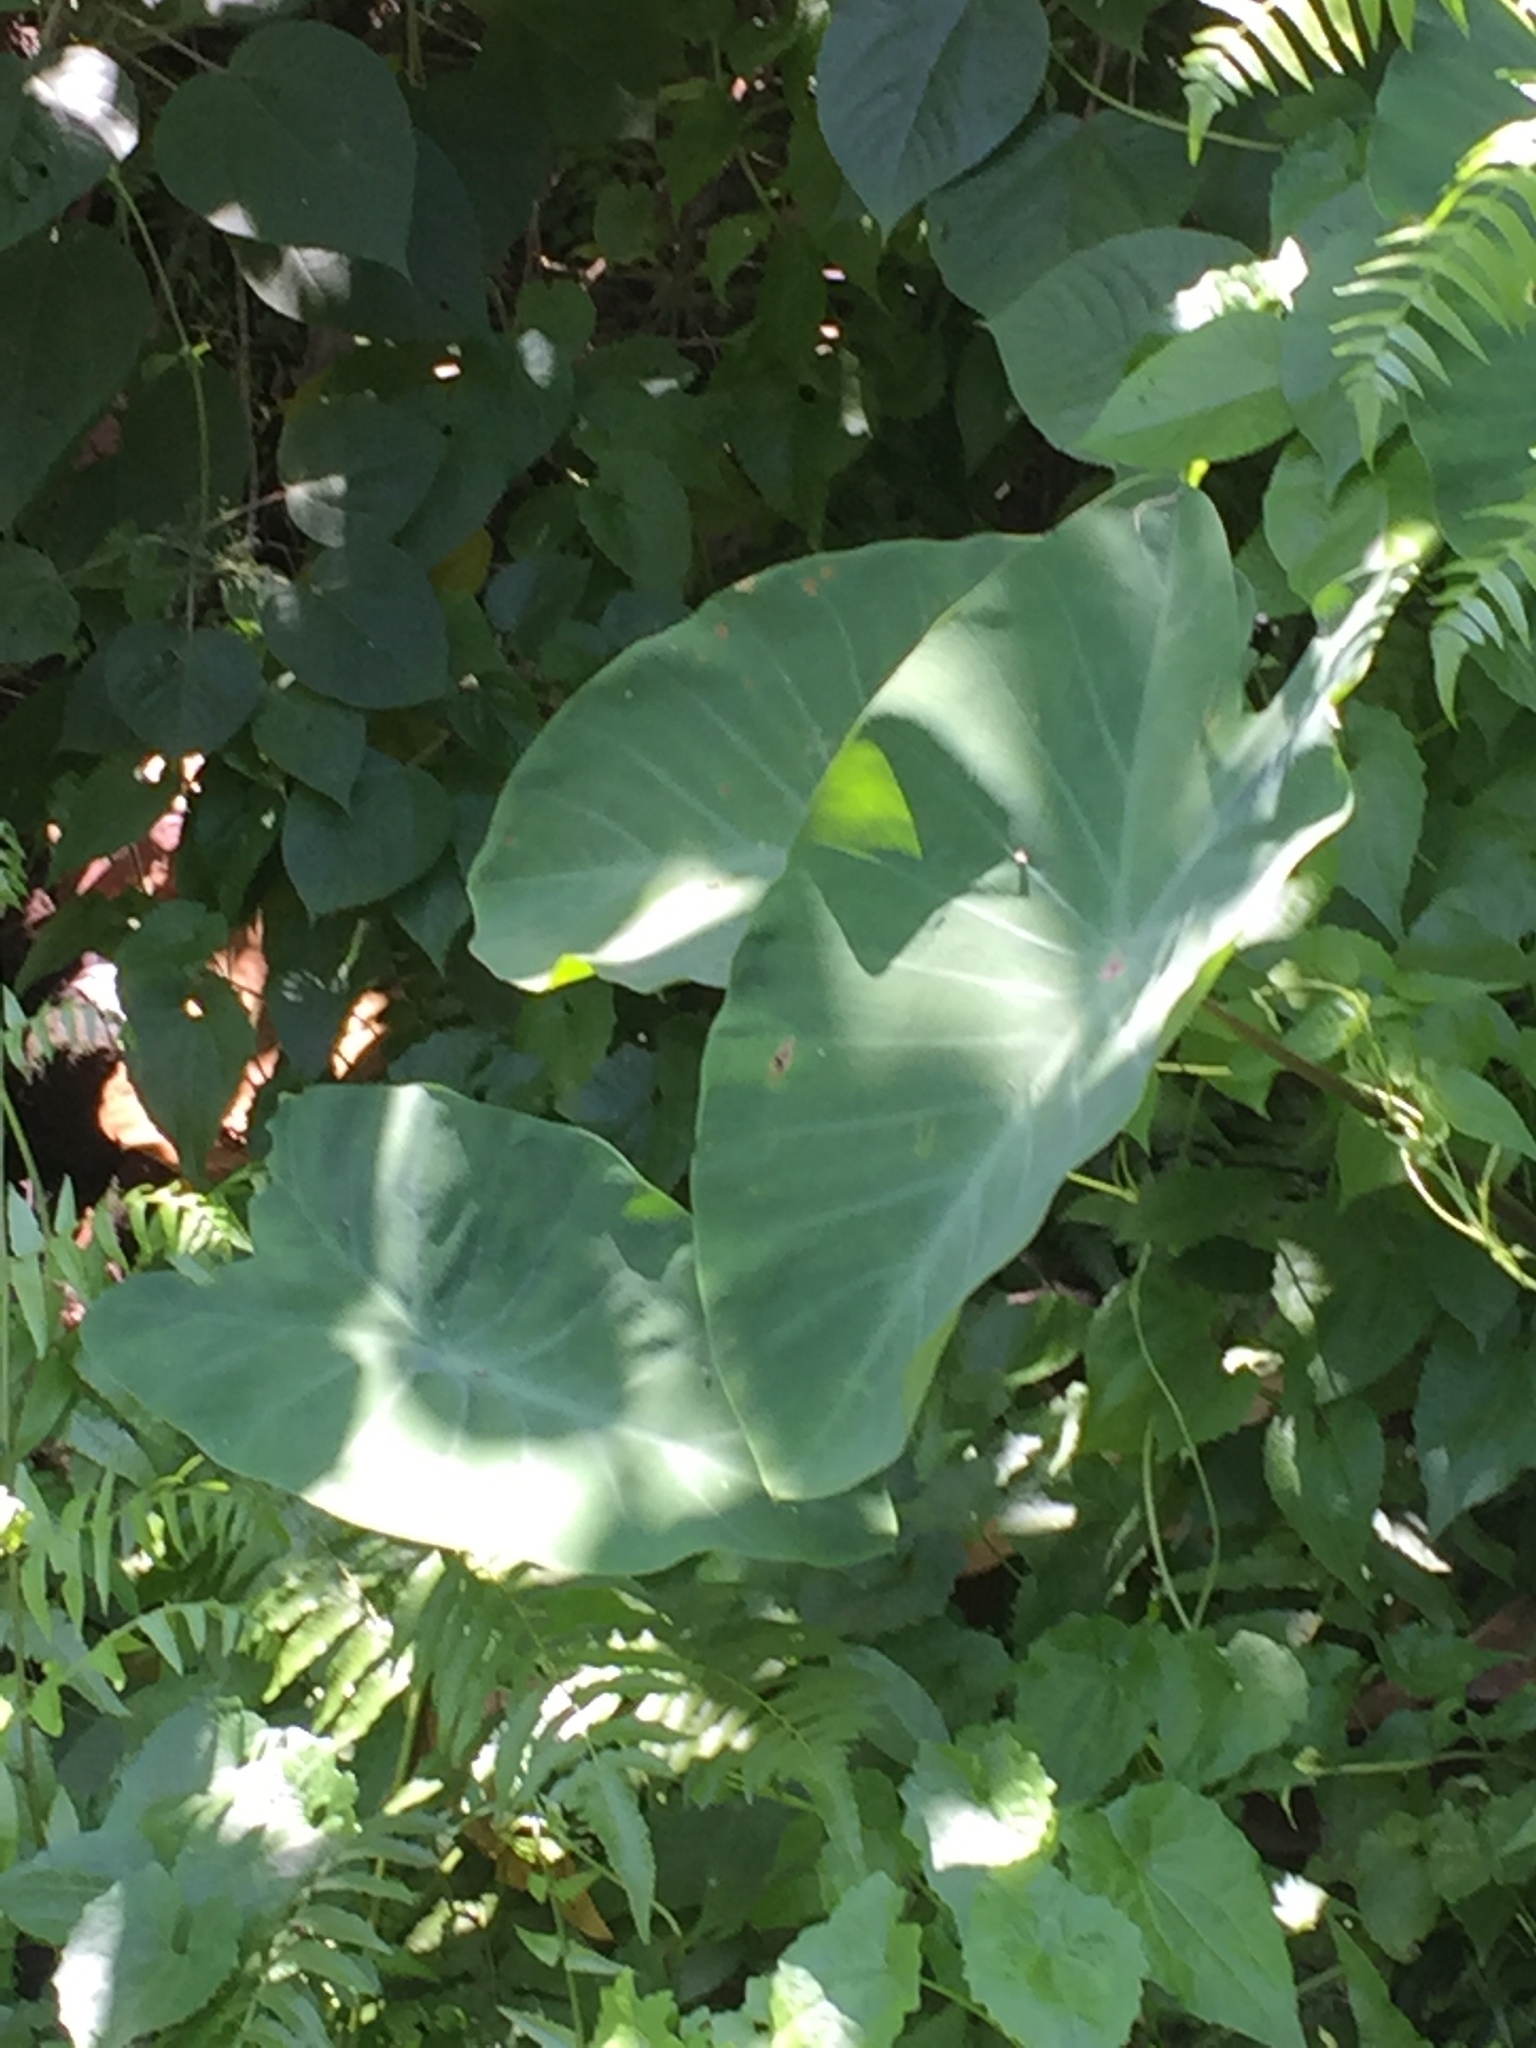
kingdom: Plantae
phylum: Tracheophyta
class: Liliopsida
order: Alismatales
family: Araceae
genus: Colocasia
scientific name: Colocasia esculenta
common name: Taro
